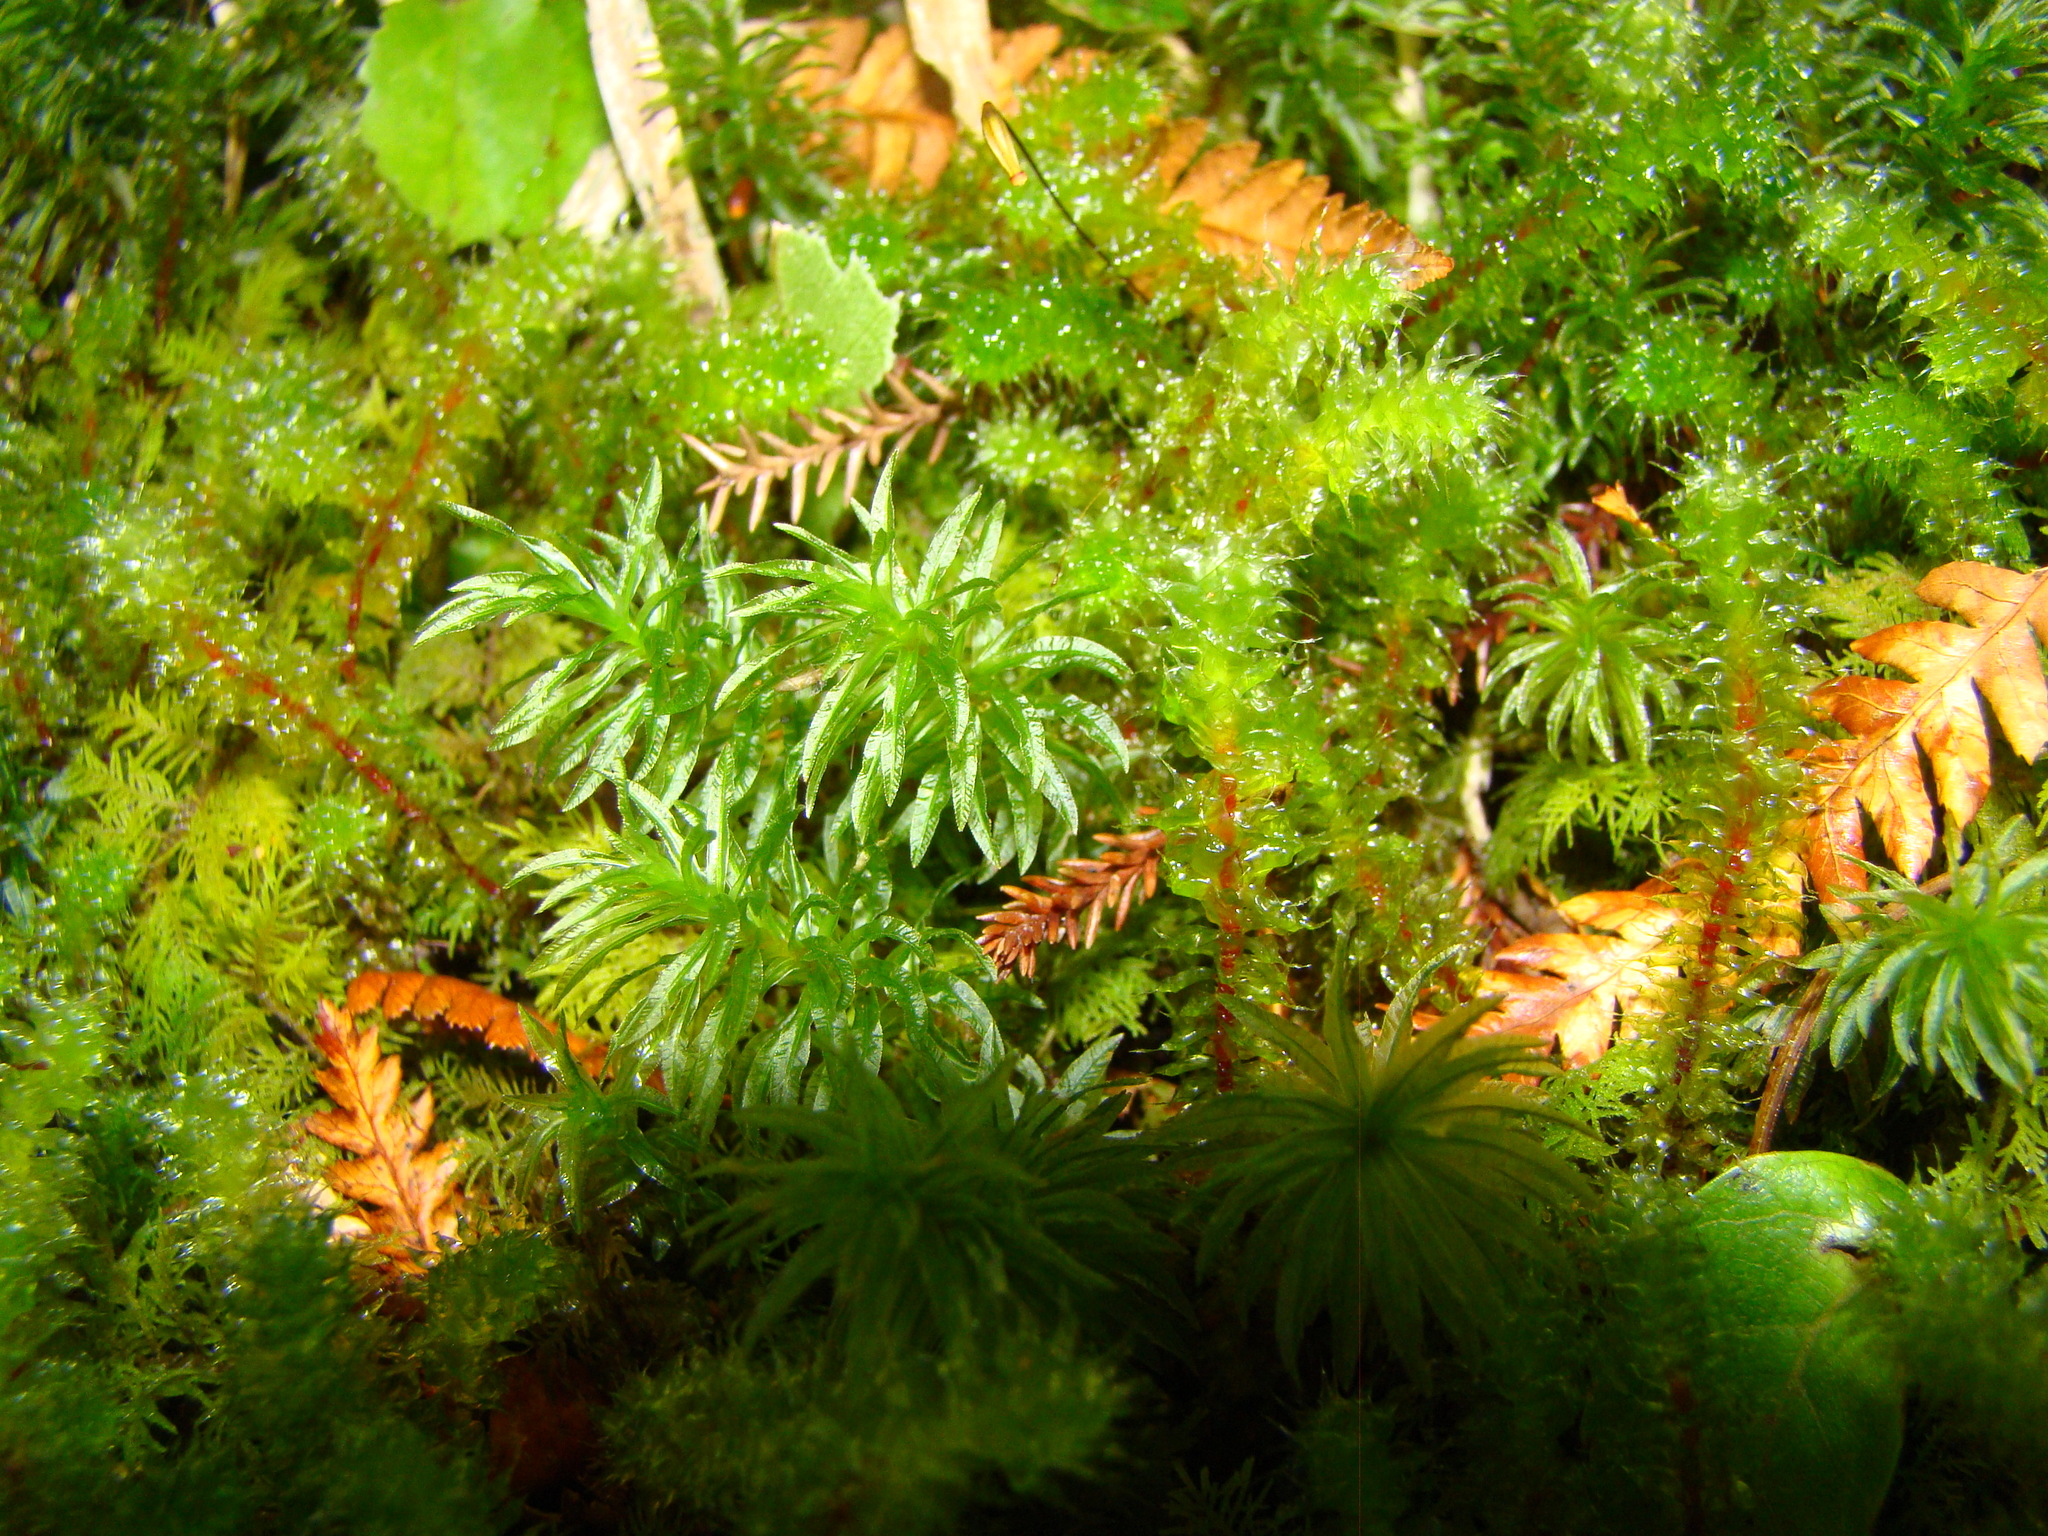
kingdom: Plantae
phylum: Bryophyta
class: Bryopsida
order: Ptychomniales
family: Ptychomniaceae
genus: Ptychomnion
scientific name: Ptychomnion aciculare
